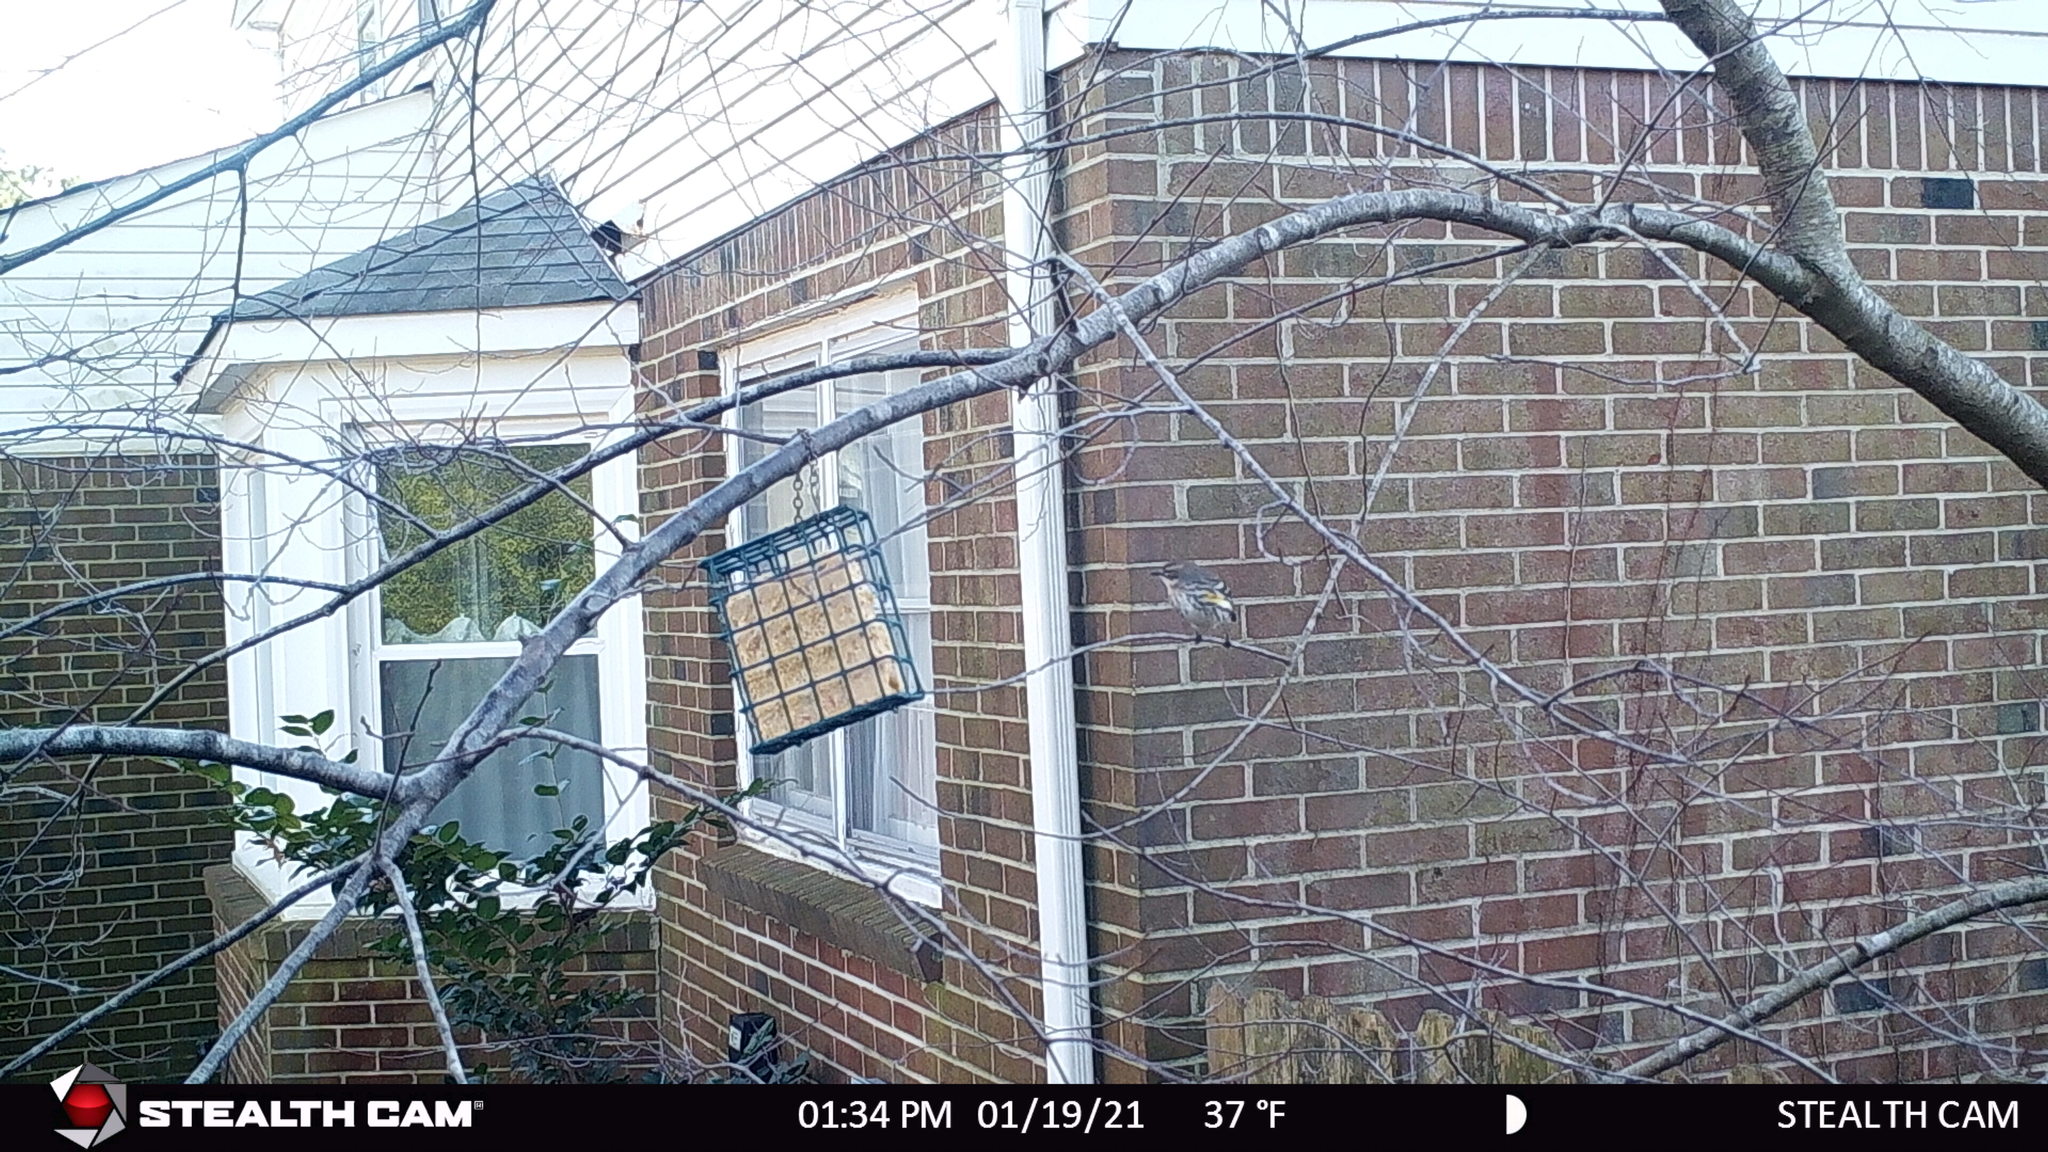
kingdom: Animalia
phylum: Chordata
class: Aves
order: Passeriformes
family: Parulidae
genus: Setophaga
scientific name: Setophaga coronata
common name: Myrtle warbler
